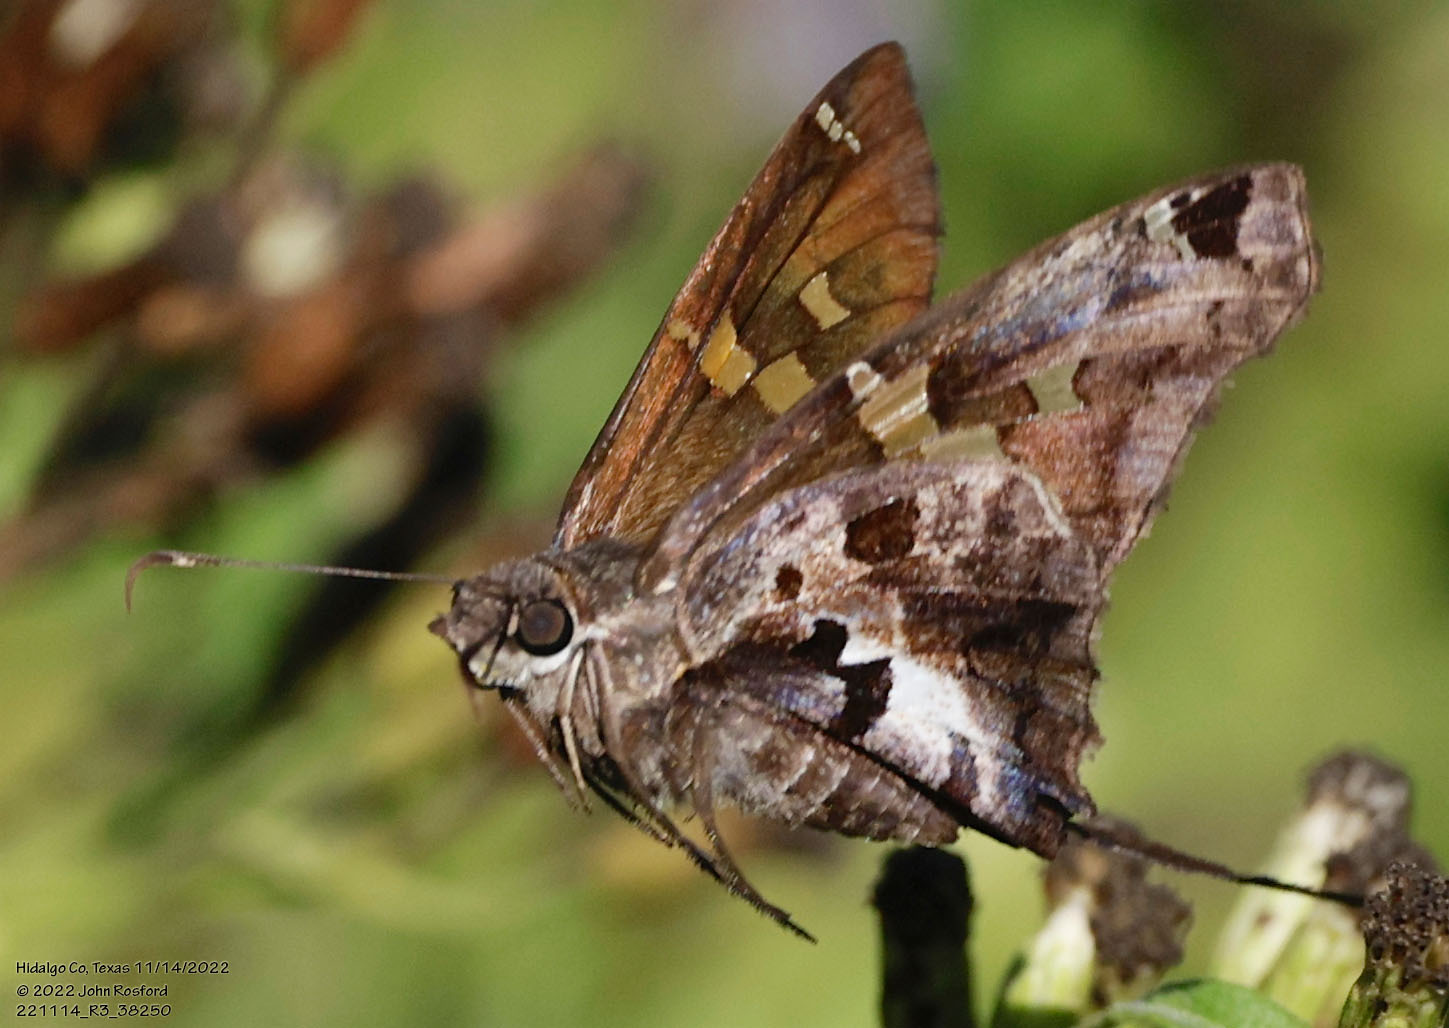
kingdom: Animalia
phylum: Arthropoda
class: Insecta
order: Lepidoptera
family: Hesperiidae
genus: Chioides
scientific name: Chioides zilpa
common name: Zilpa longtail
